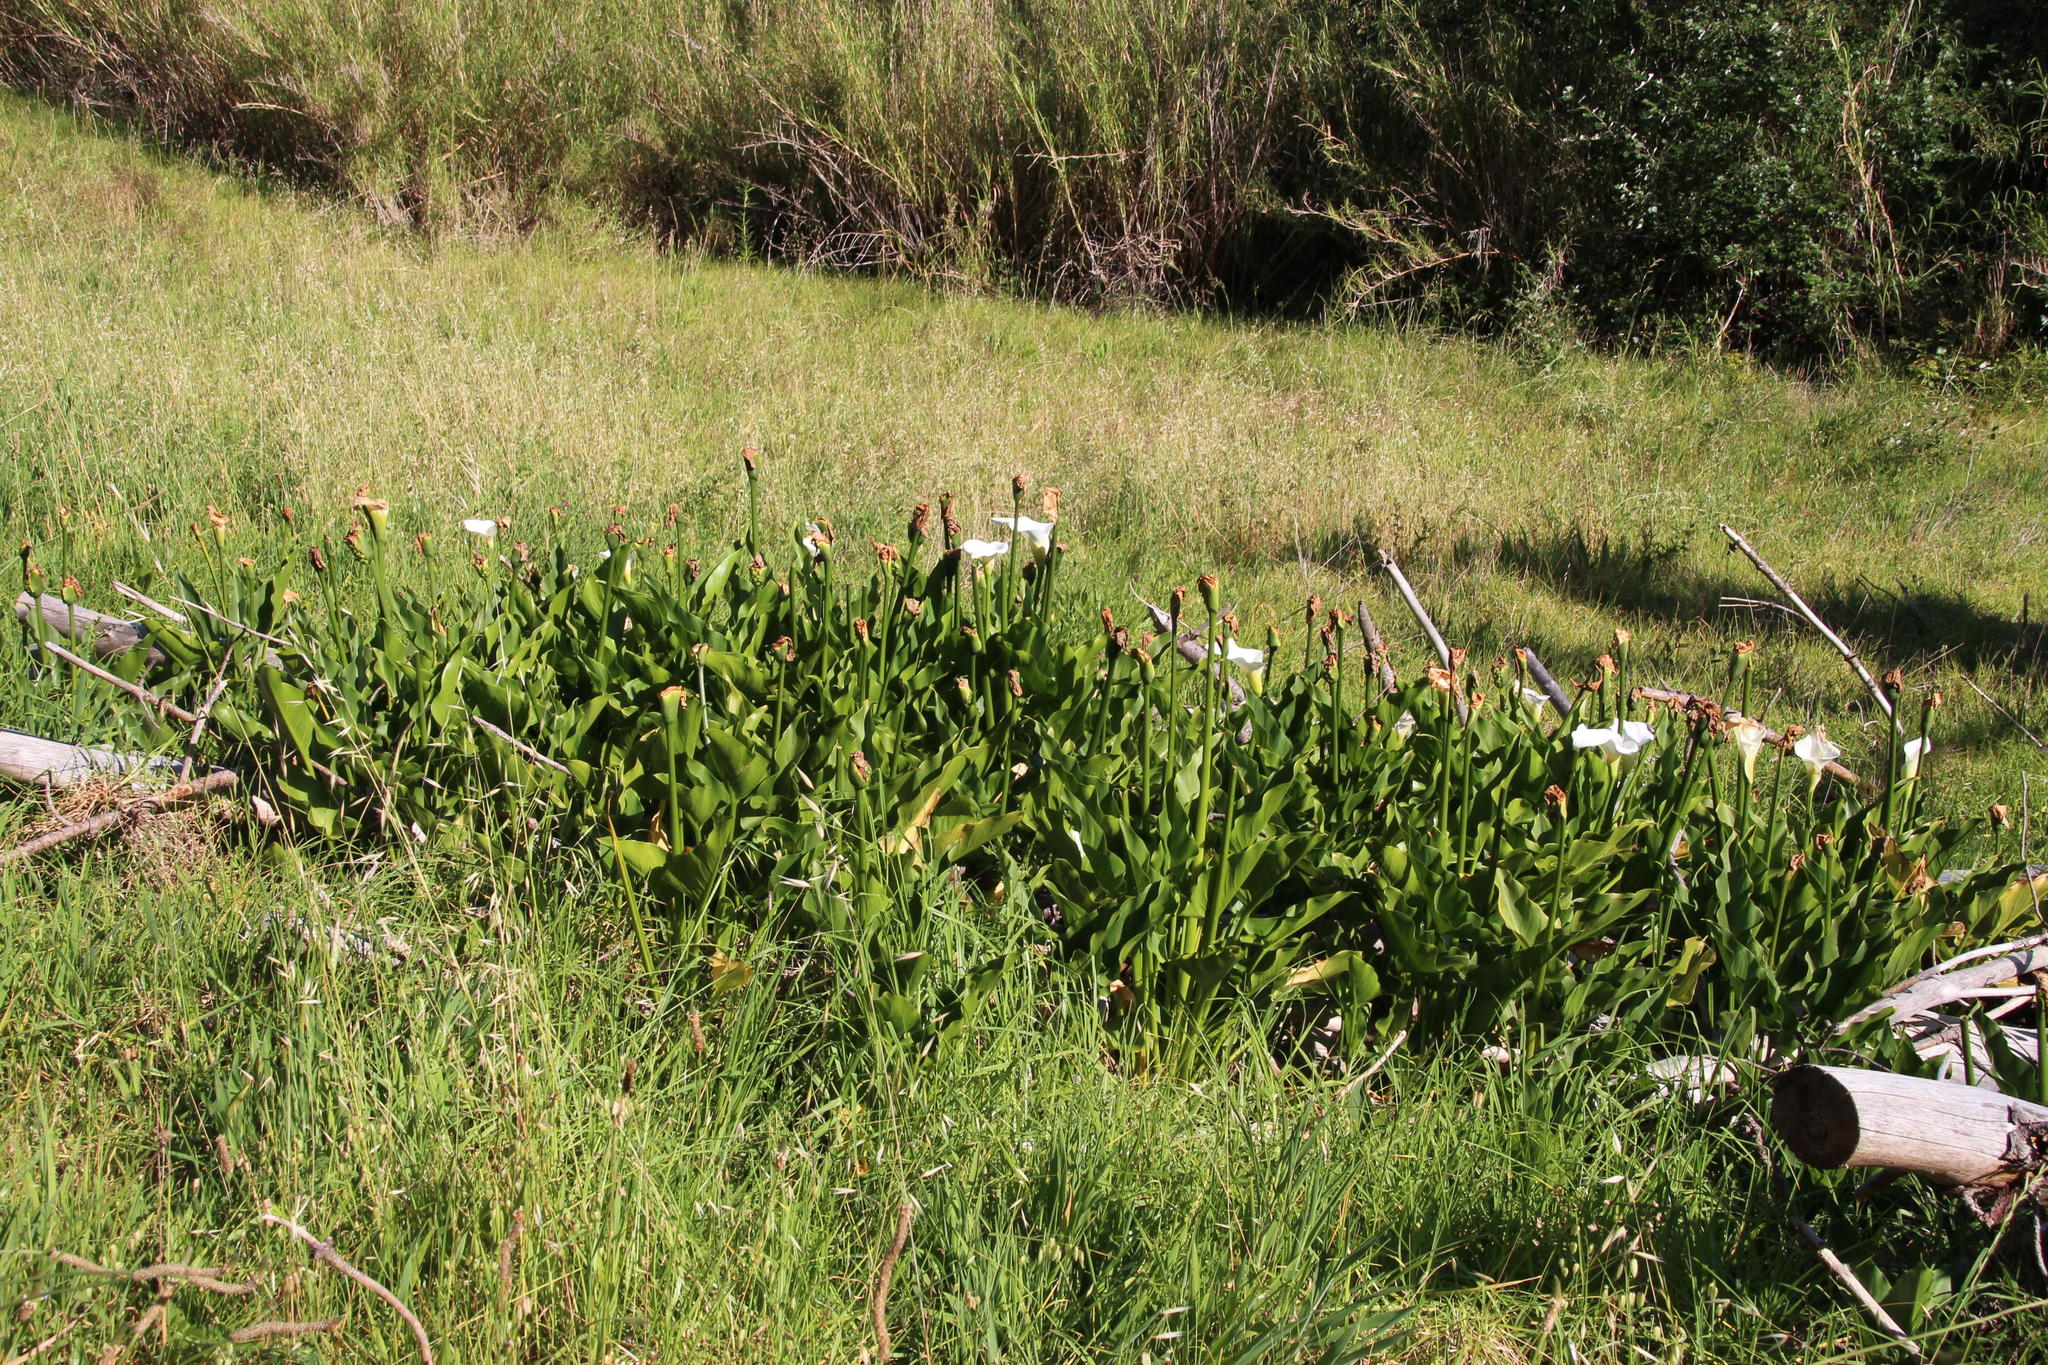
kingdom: Plantae
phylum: Tracheophyta
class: Liliopsida
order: Alismatales
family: Araceae
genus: Zantedeschia
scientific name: Zantedeschia aethiopica
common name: Altar-lily
